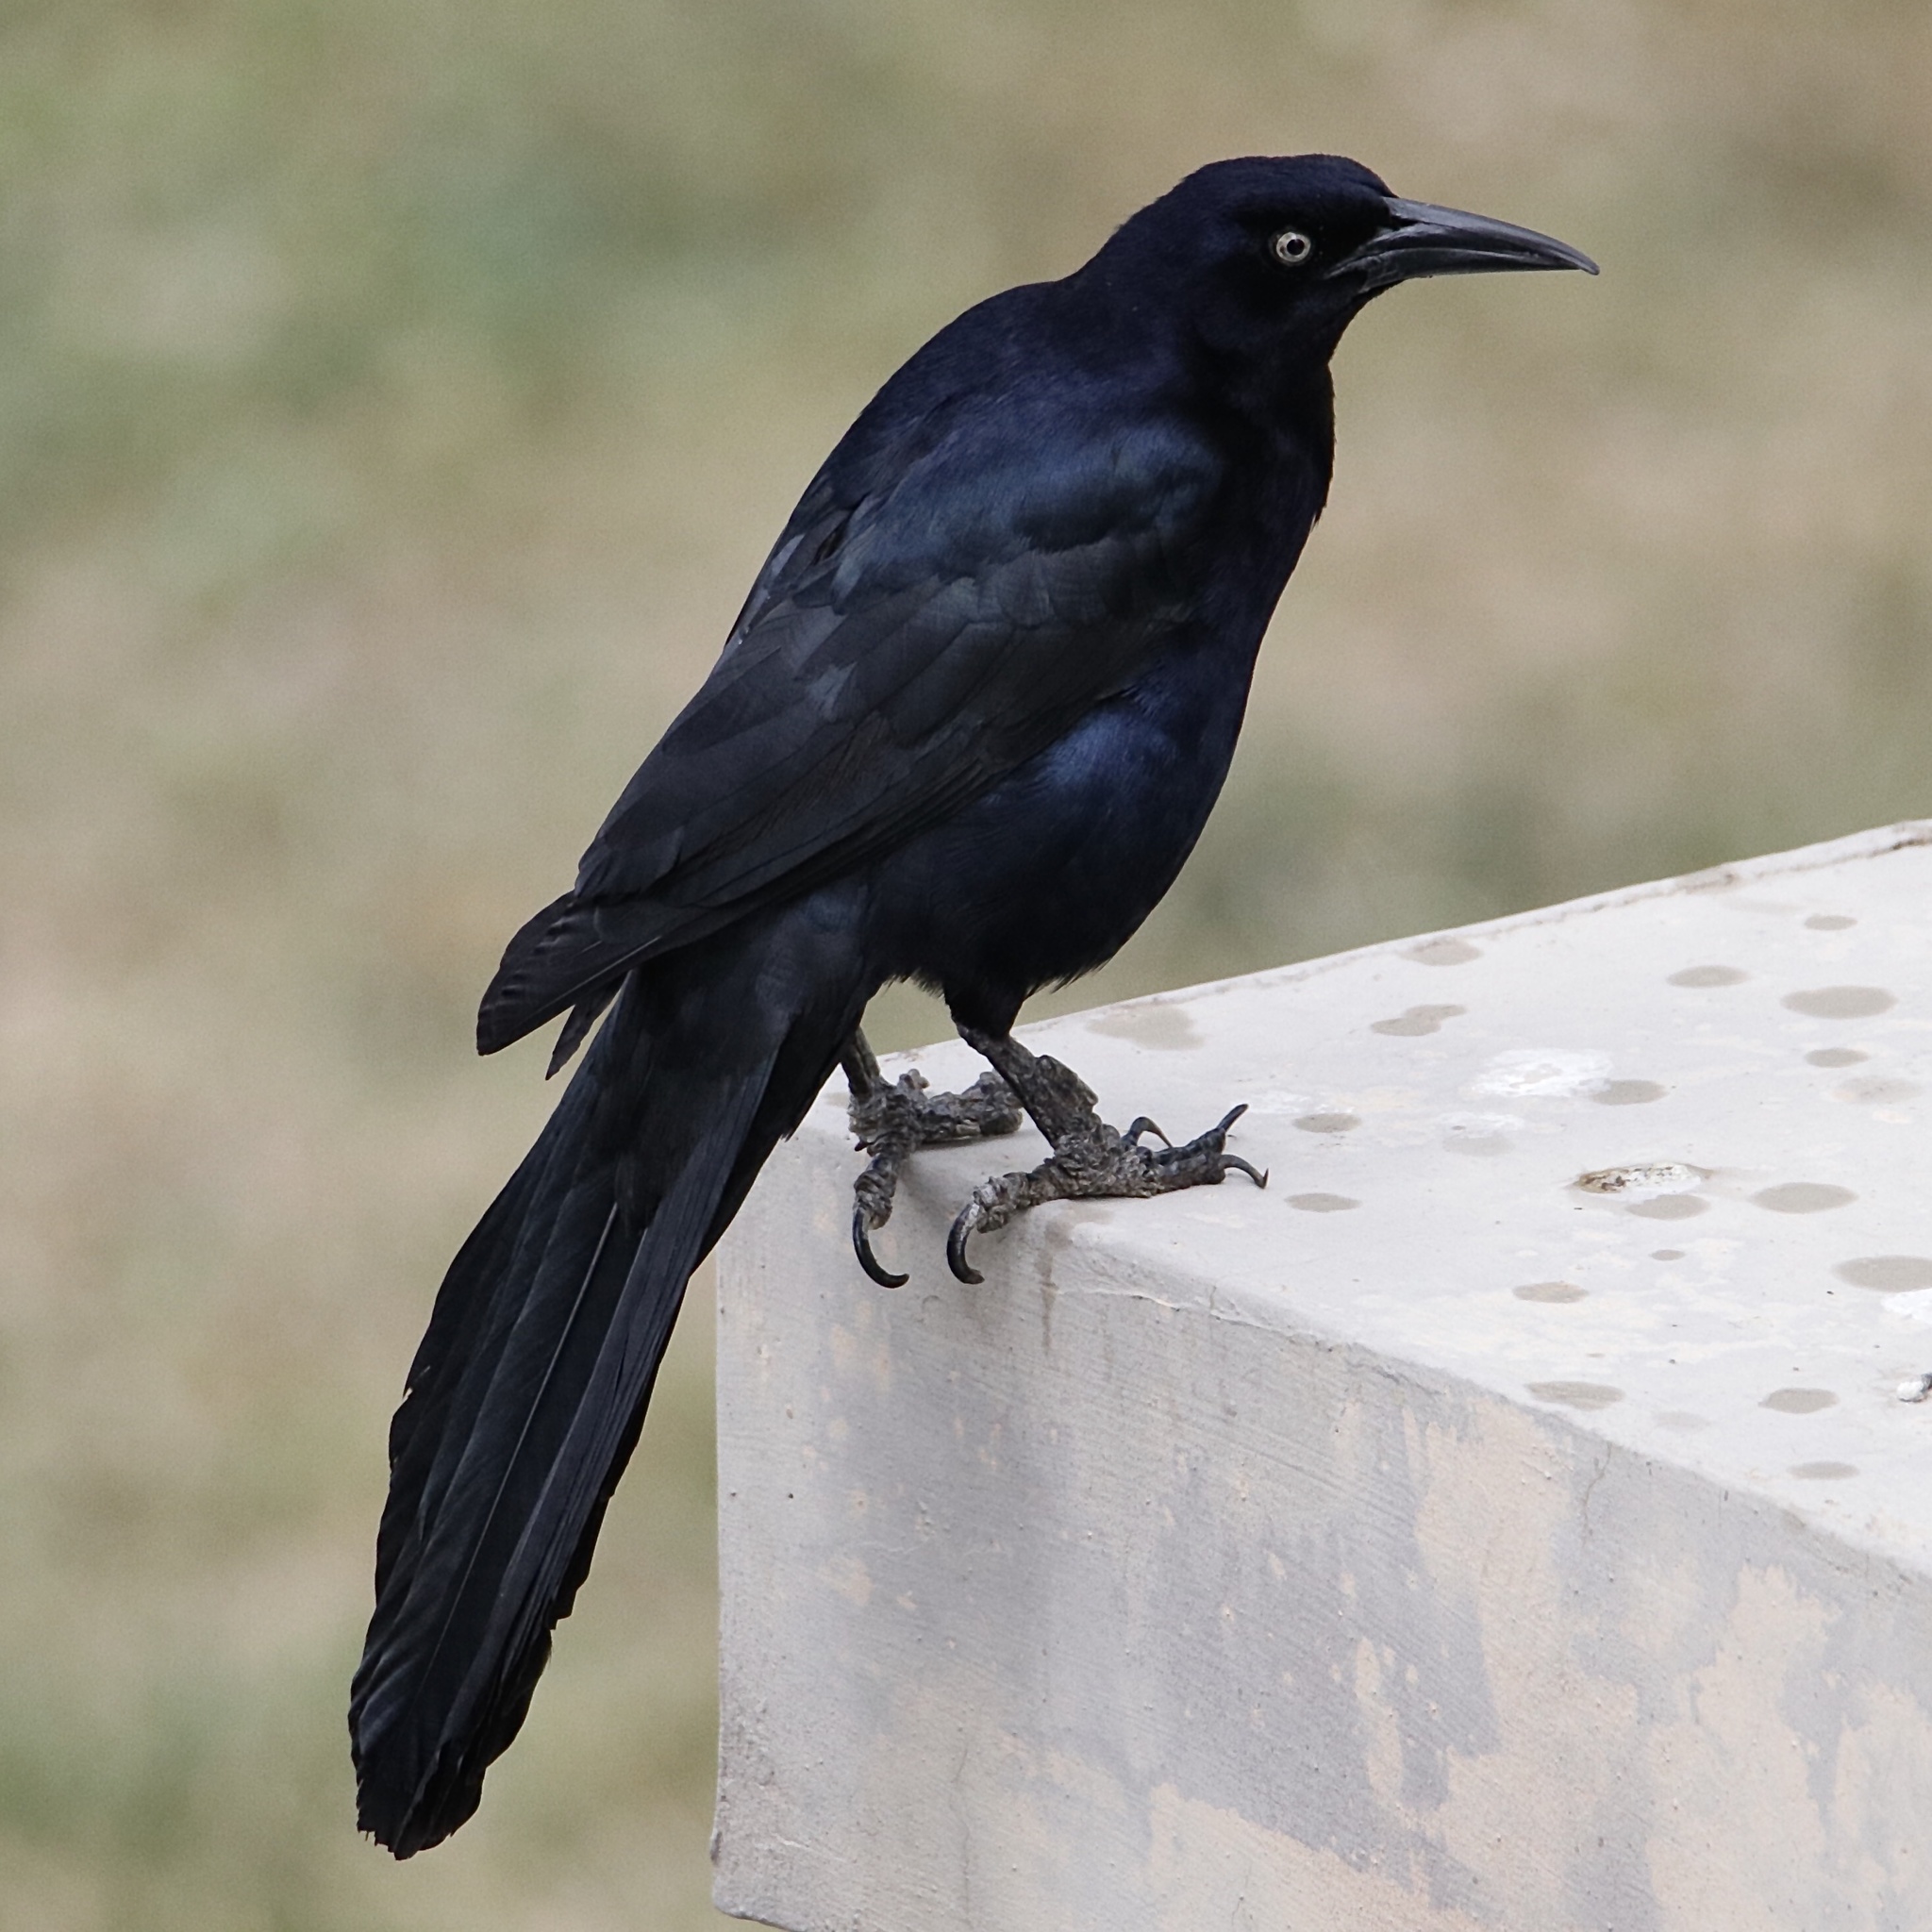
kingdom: Animalia
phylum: Chordata
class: Aves
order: Passeriformes
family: Icteridae
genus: Quiscalus
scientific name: Quiscalus mexicanus
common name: Great-tailed grackle
